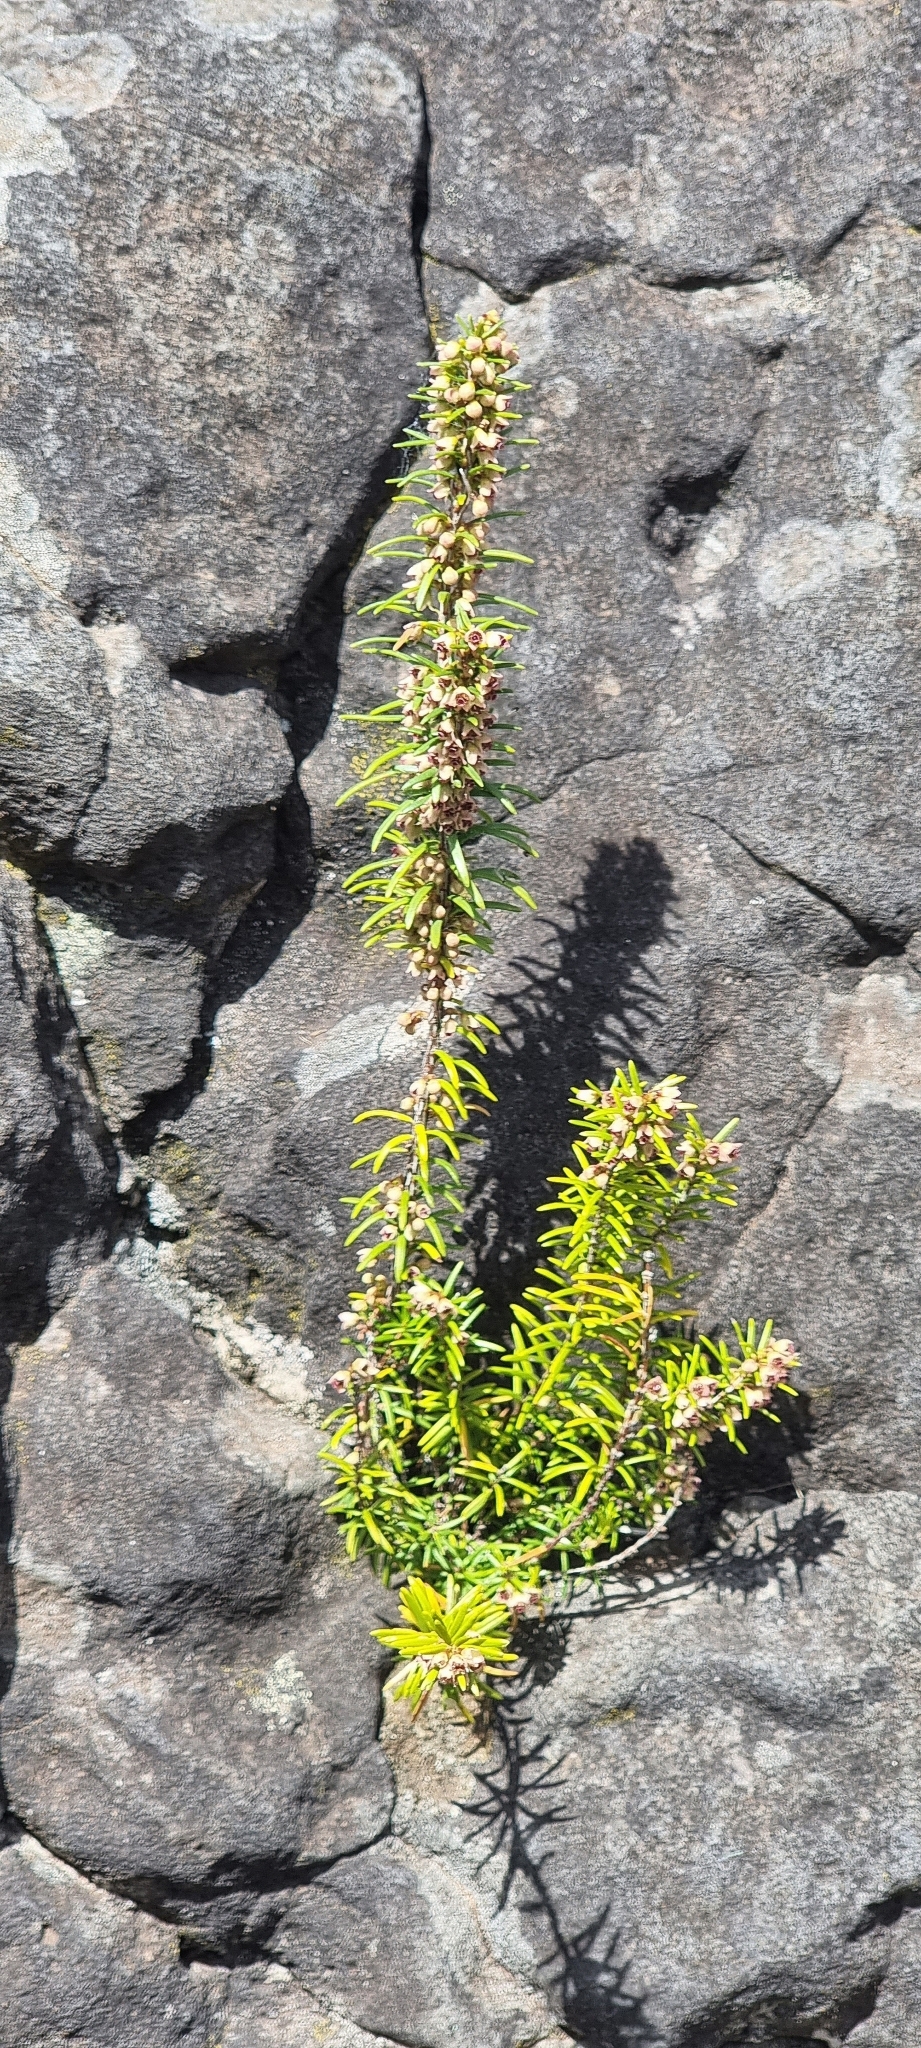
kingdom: Plantae
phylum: Tracheophyta
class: Magnoliopsida
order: Ericales
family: Ericaceae
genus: Erica
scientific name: Erica platycodon
